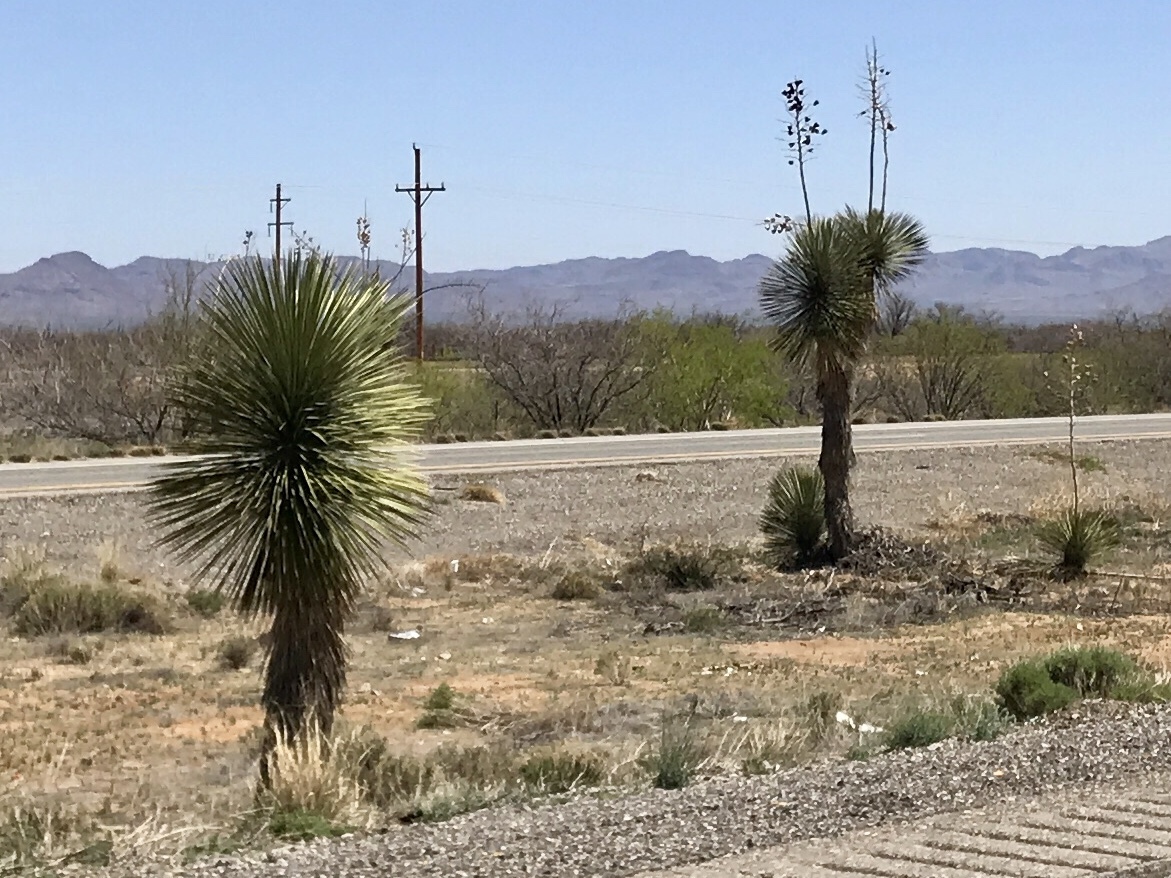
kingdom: Plantae
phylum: Tracheophyta
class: Liliopsida
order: Asparagales
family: Asparagaceae
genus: Yucca
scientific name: Yucca elata
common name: Palmella
